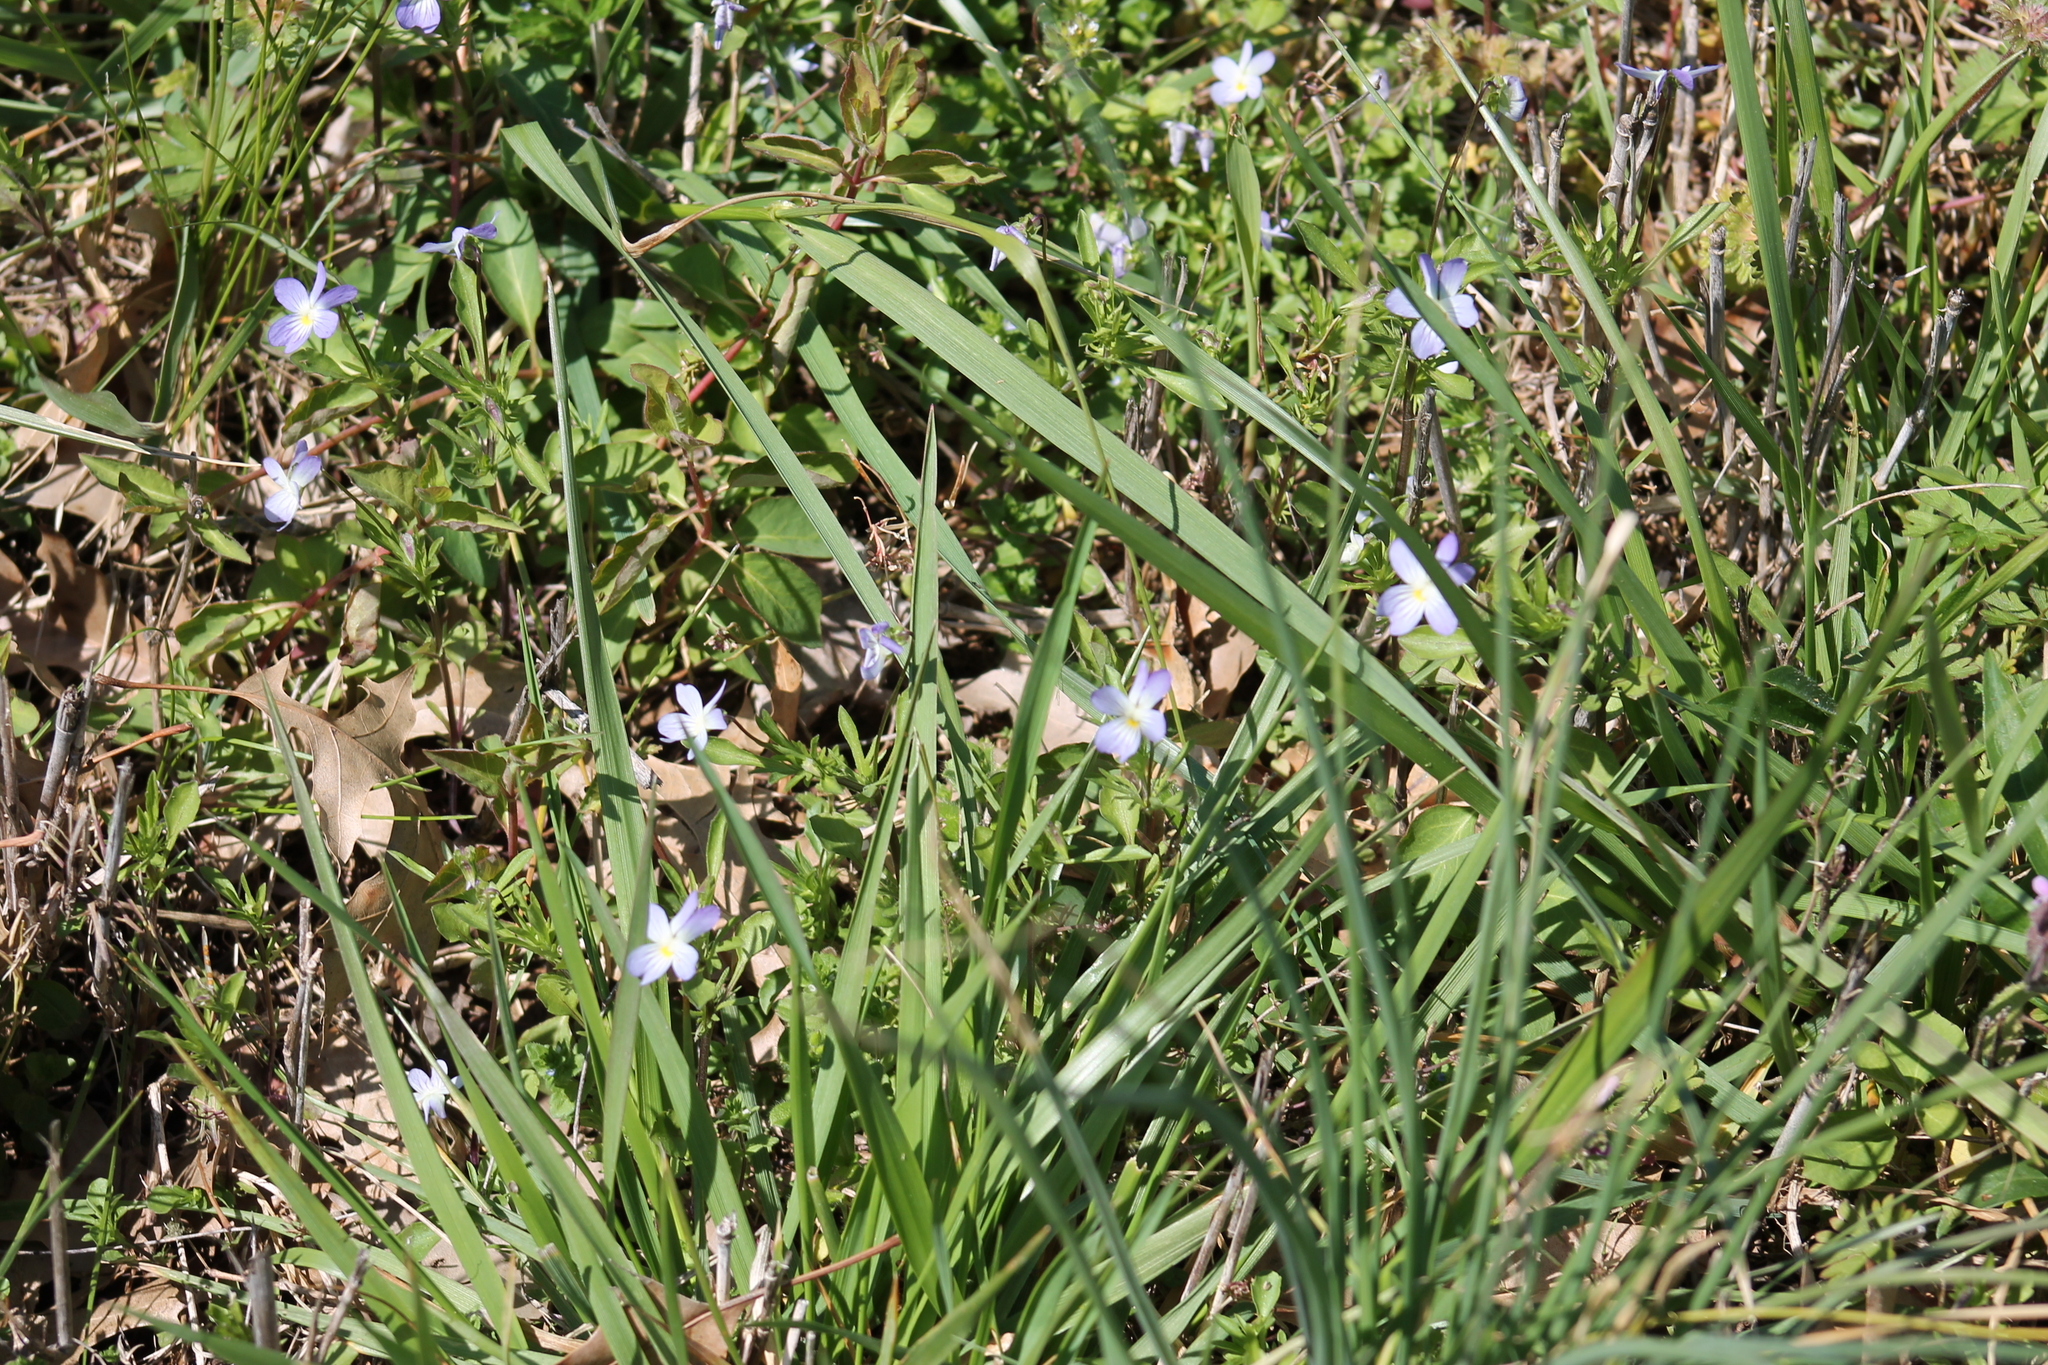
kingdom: Plantae
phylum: Tracheophyta
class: Magnoliopsida
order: Malpighiales
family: Violaceae
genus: Viola
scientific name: Viola rafinesquei
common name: American field pansy
